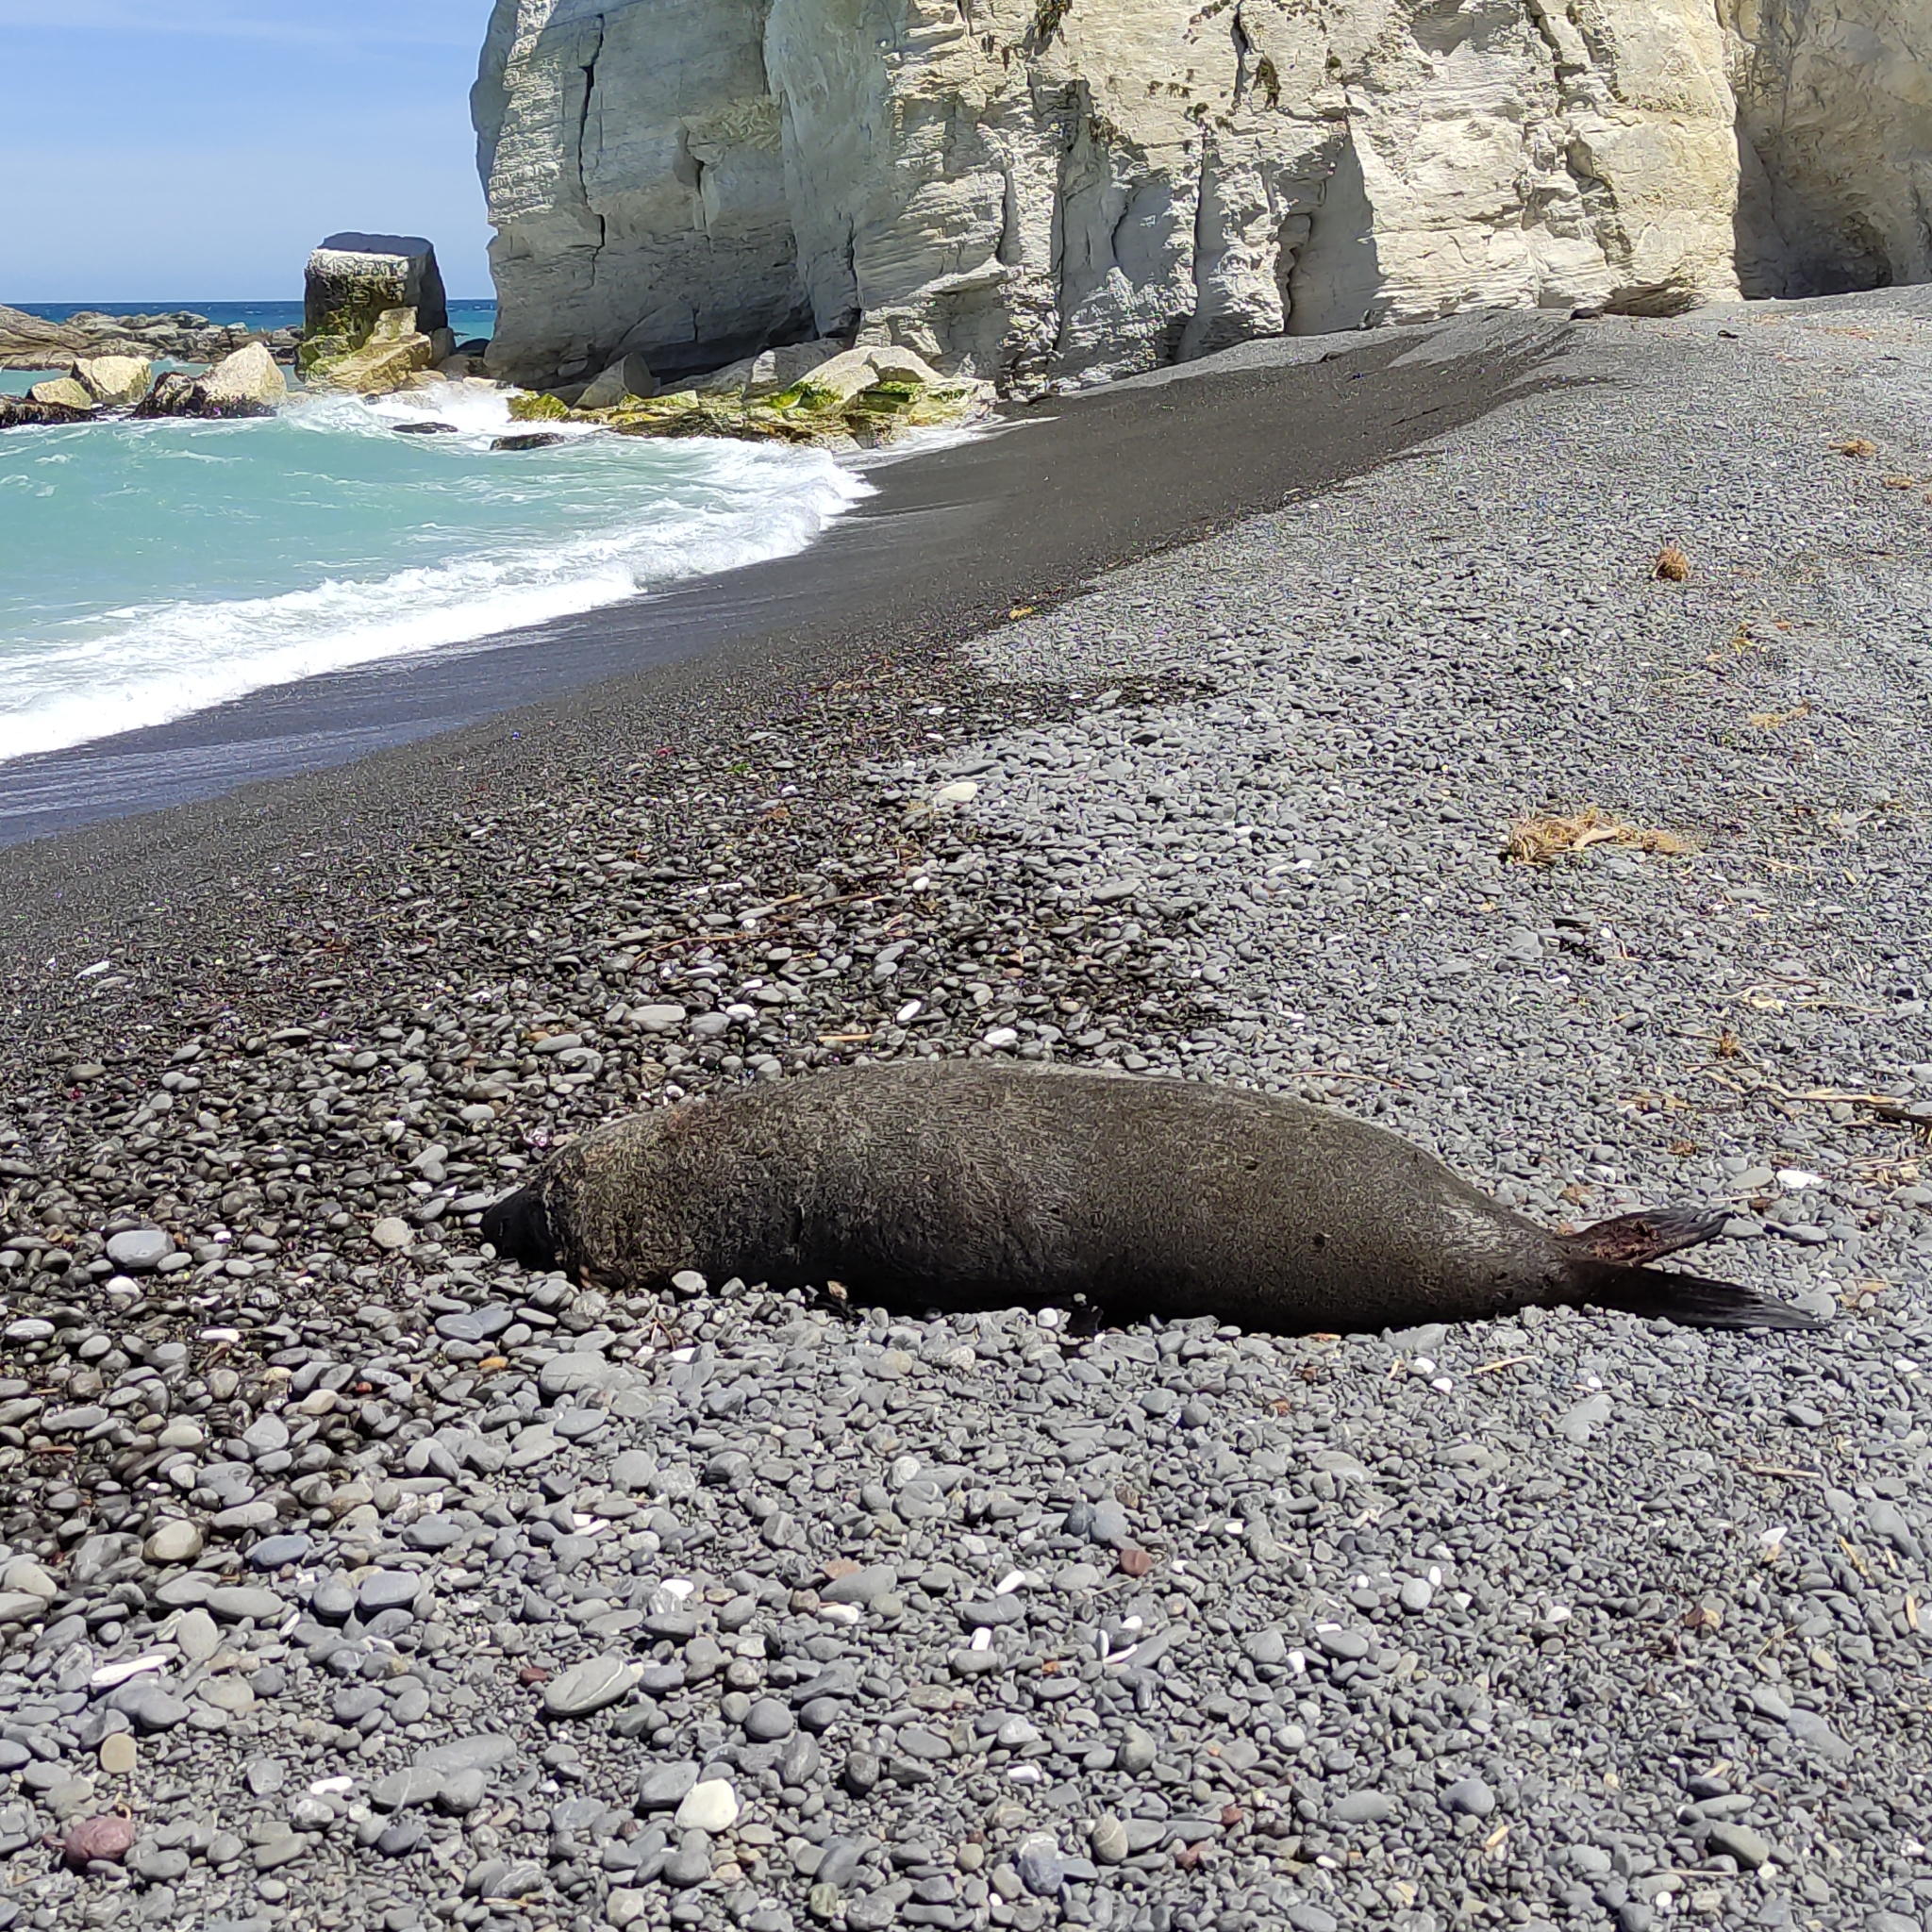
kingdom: Animalia
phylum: Chordata
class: Mammalia
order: Carnivora
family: Otariidae
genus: Arctocephalus
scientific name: Arctocephalus forsteri
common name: New zealand fur seal
